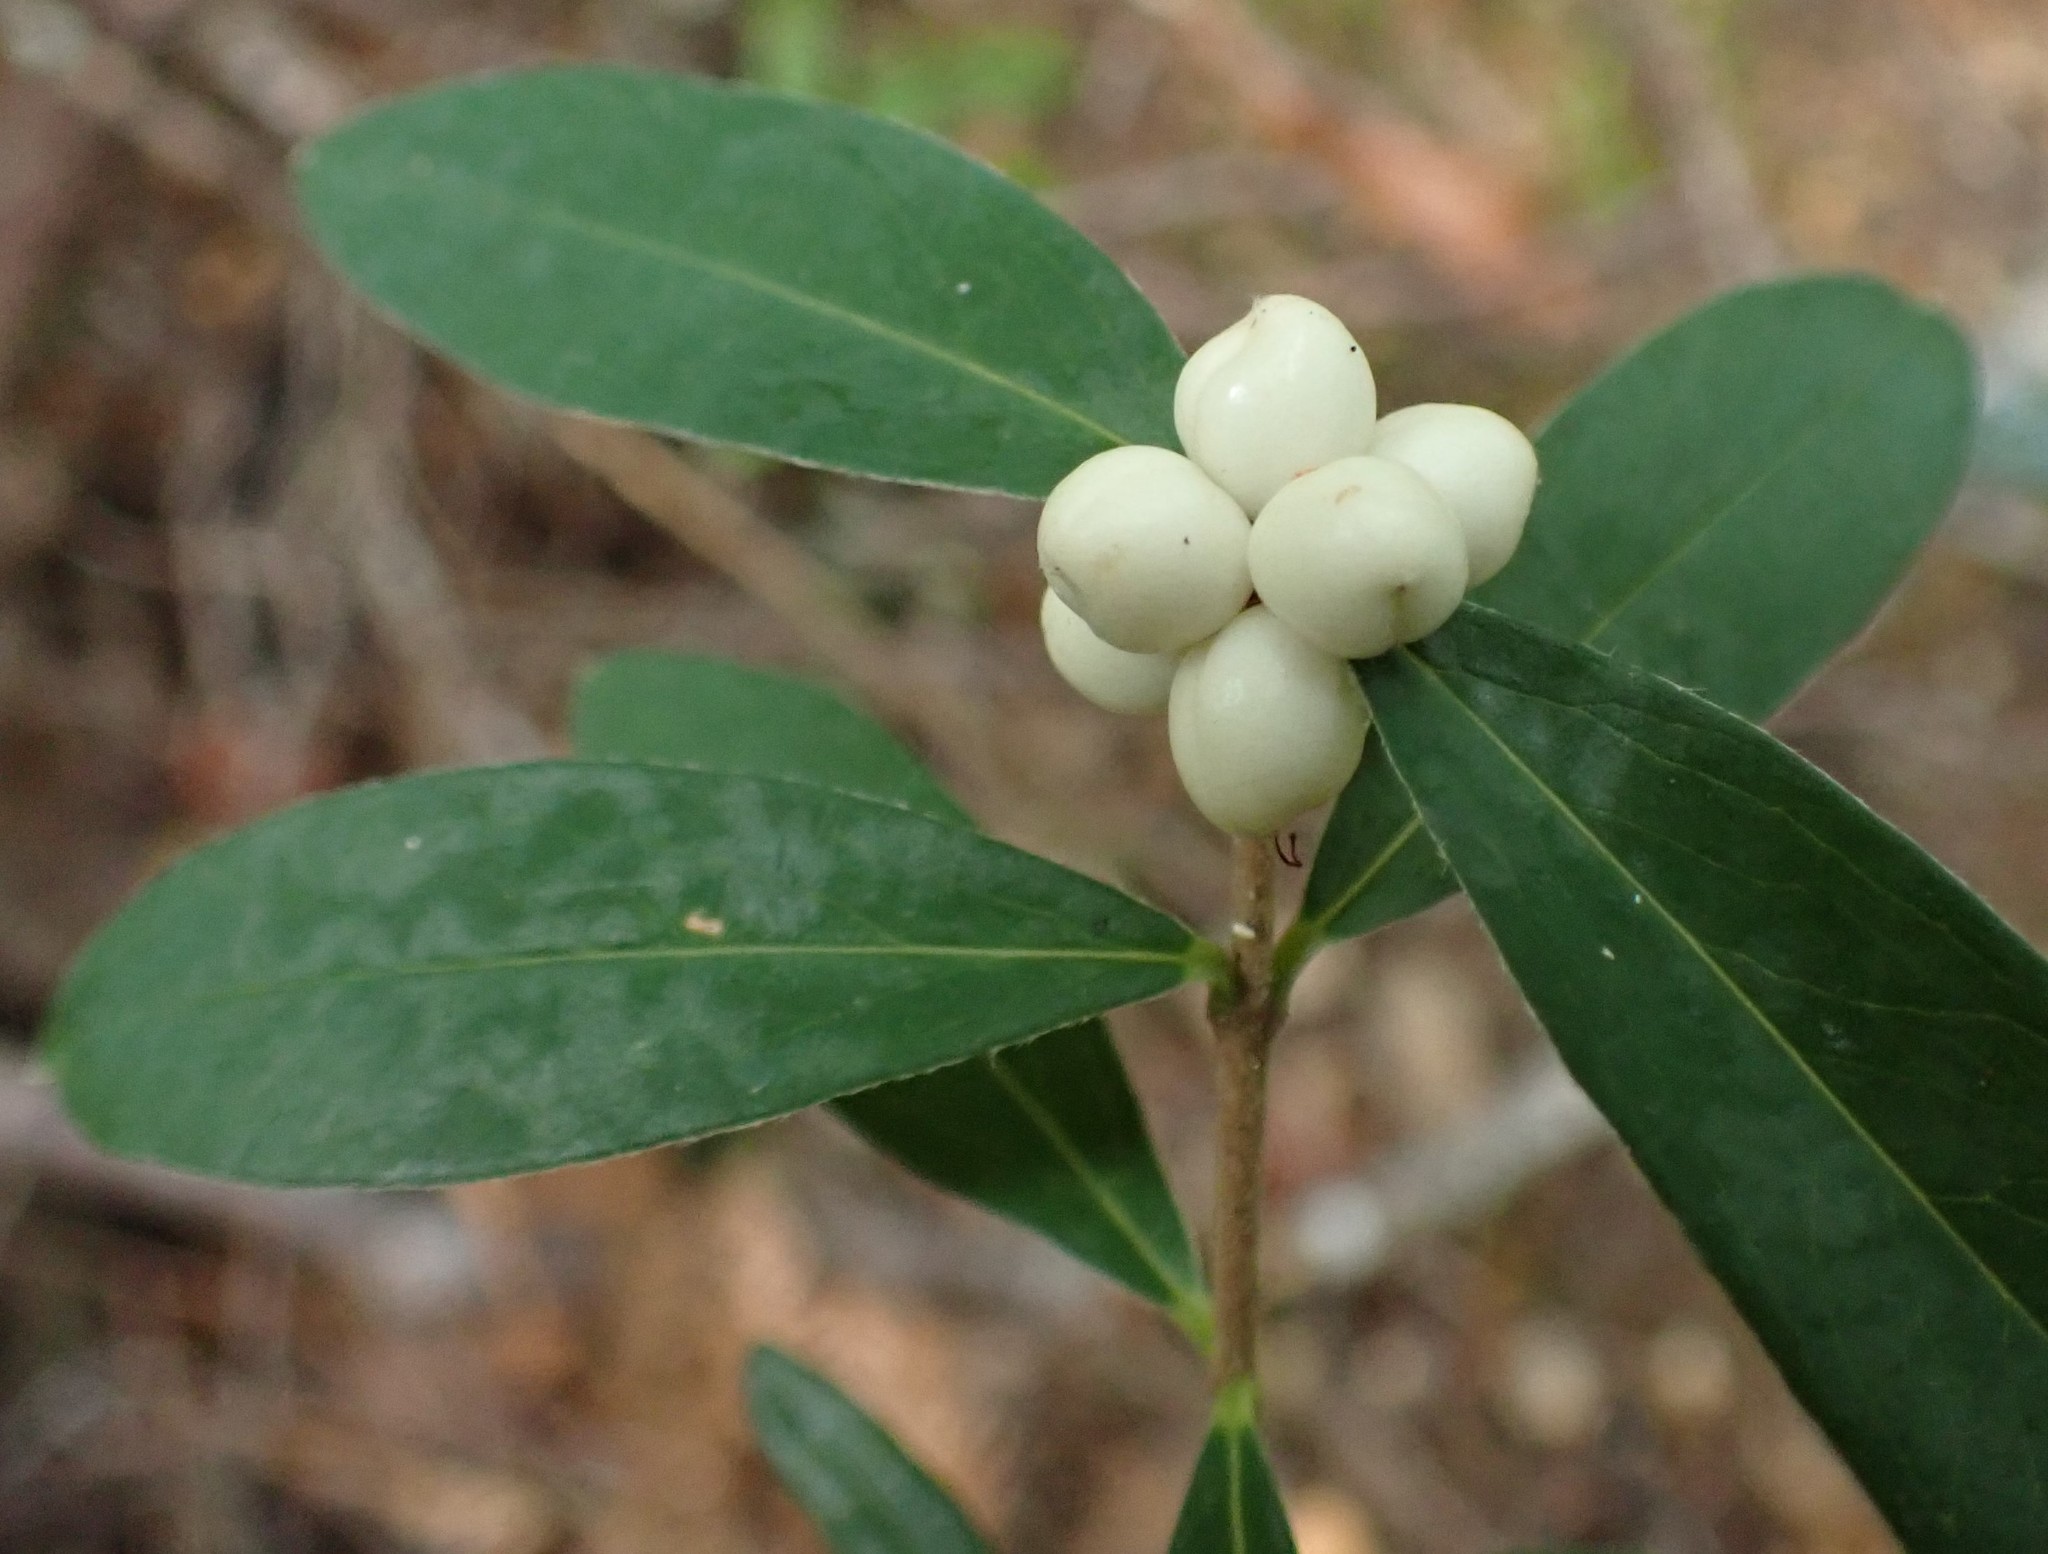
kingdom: Plantae
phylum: Tracheophyta
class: Magnoliopsida
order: Malvales
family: Thymelaeaceae
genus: Pimelea
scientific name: Pimelea drupacea
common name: Cherry riceflower
